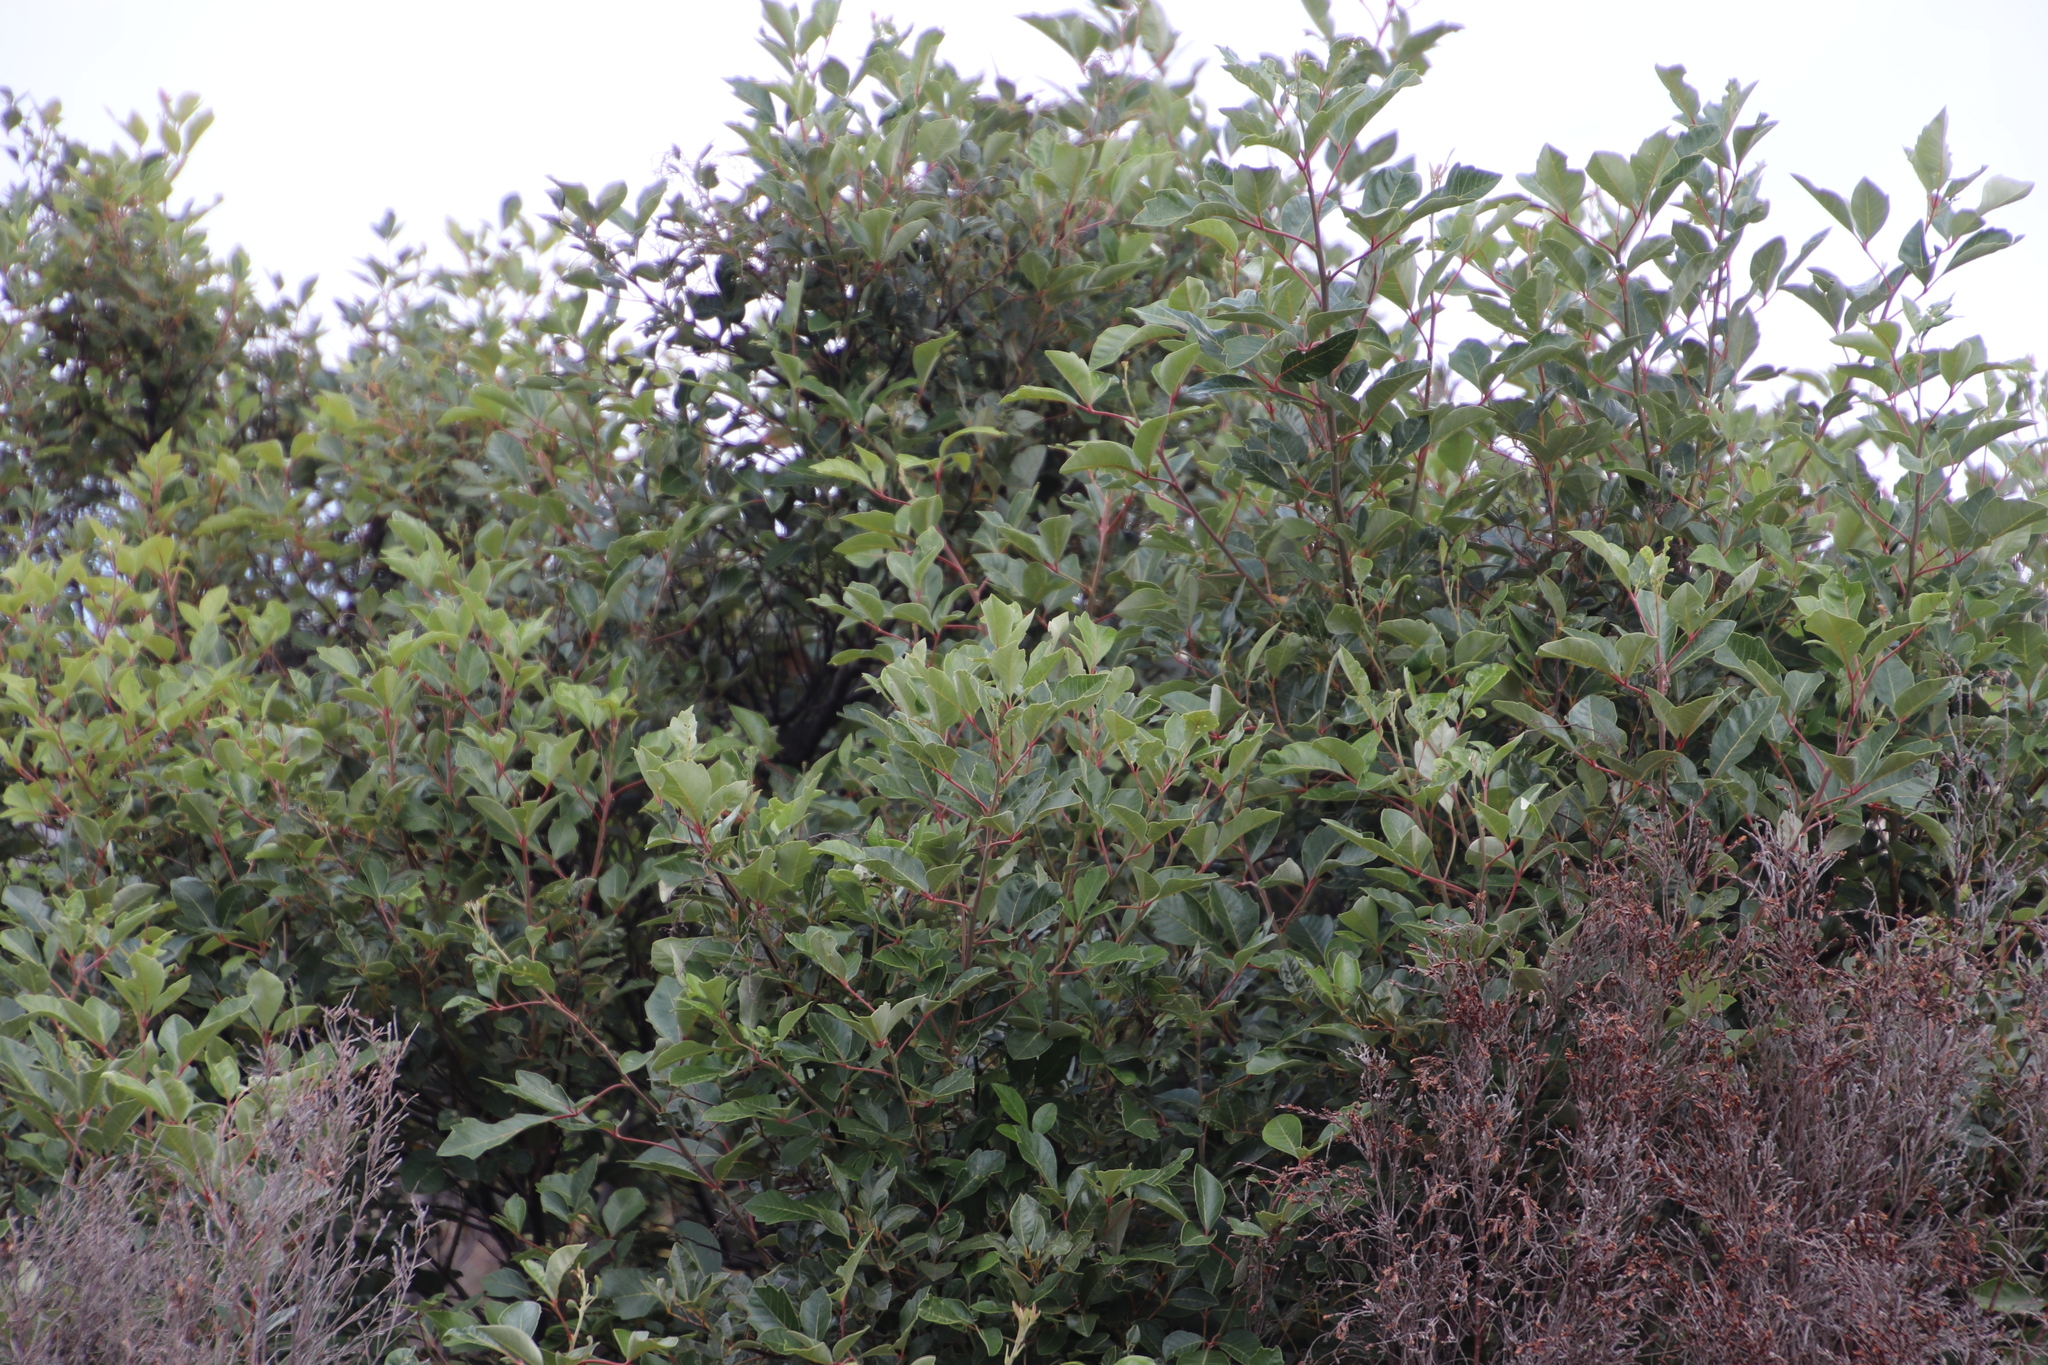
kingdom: Plantae
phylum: Tracheophyta
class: Magnoliopsida
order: Sapindales
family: Anacardiaceae
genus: Searsia
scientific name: Searsia tomentosa
